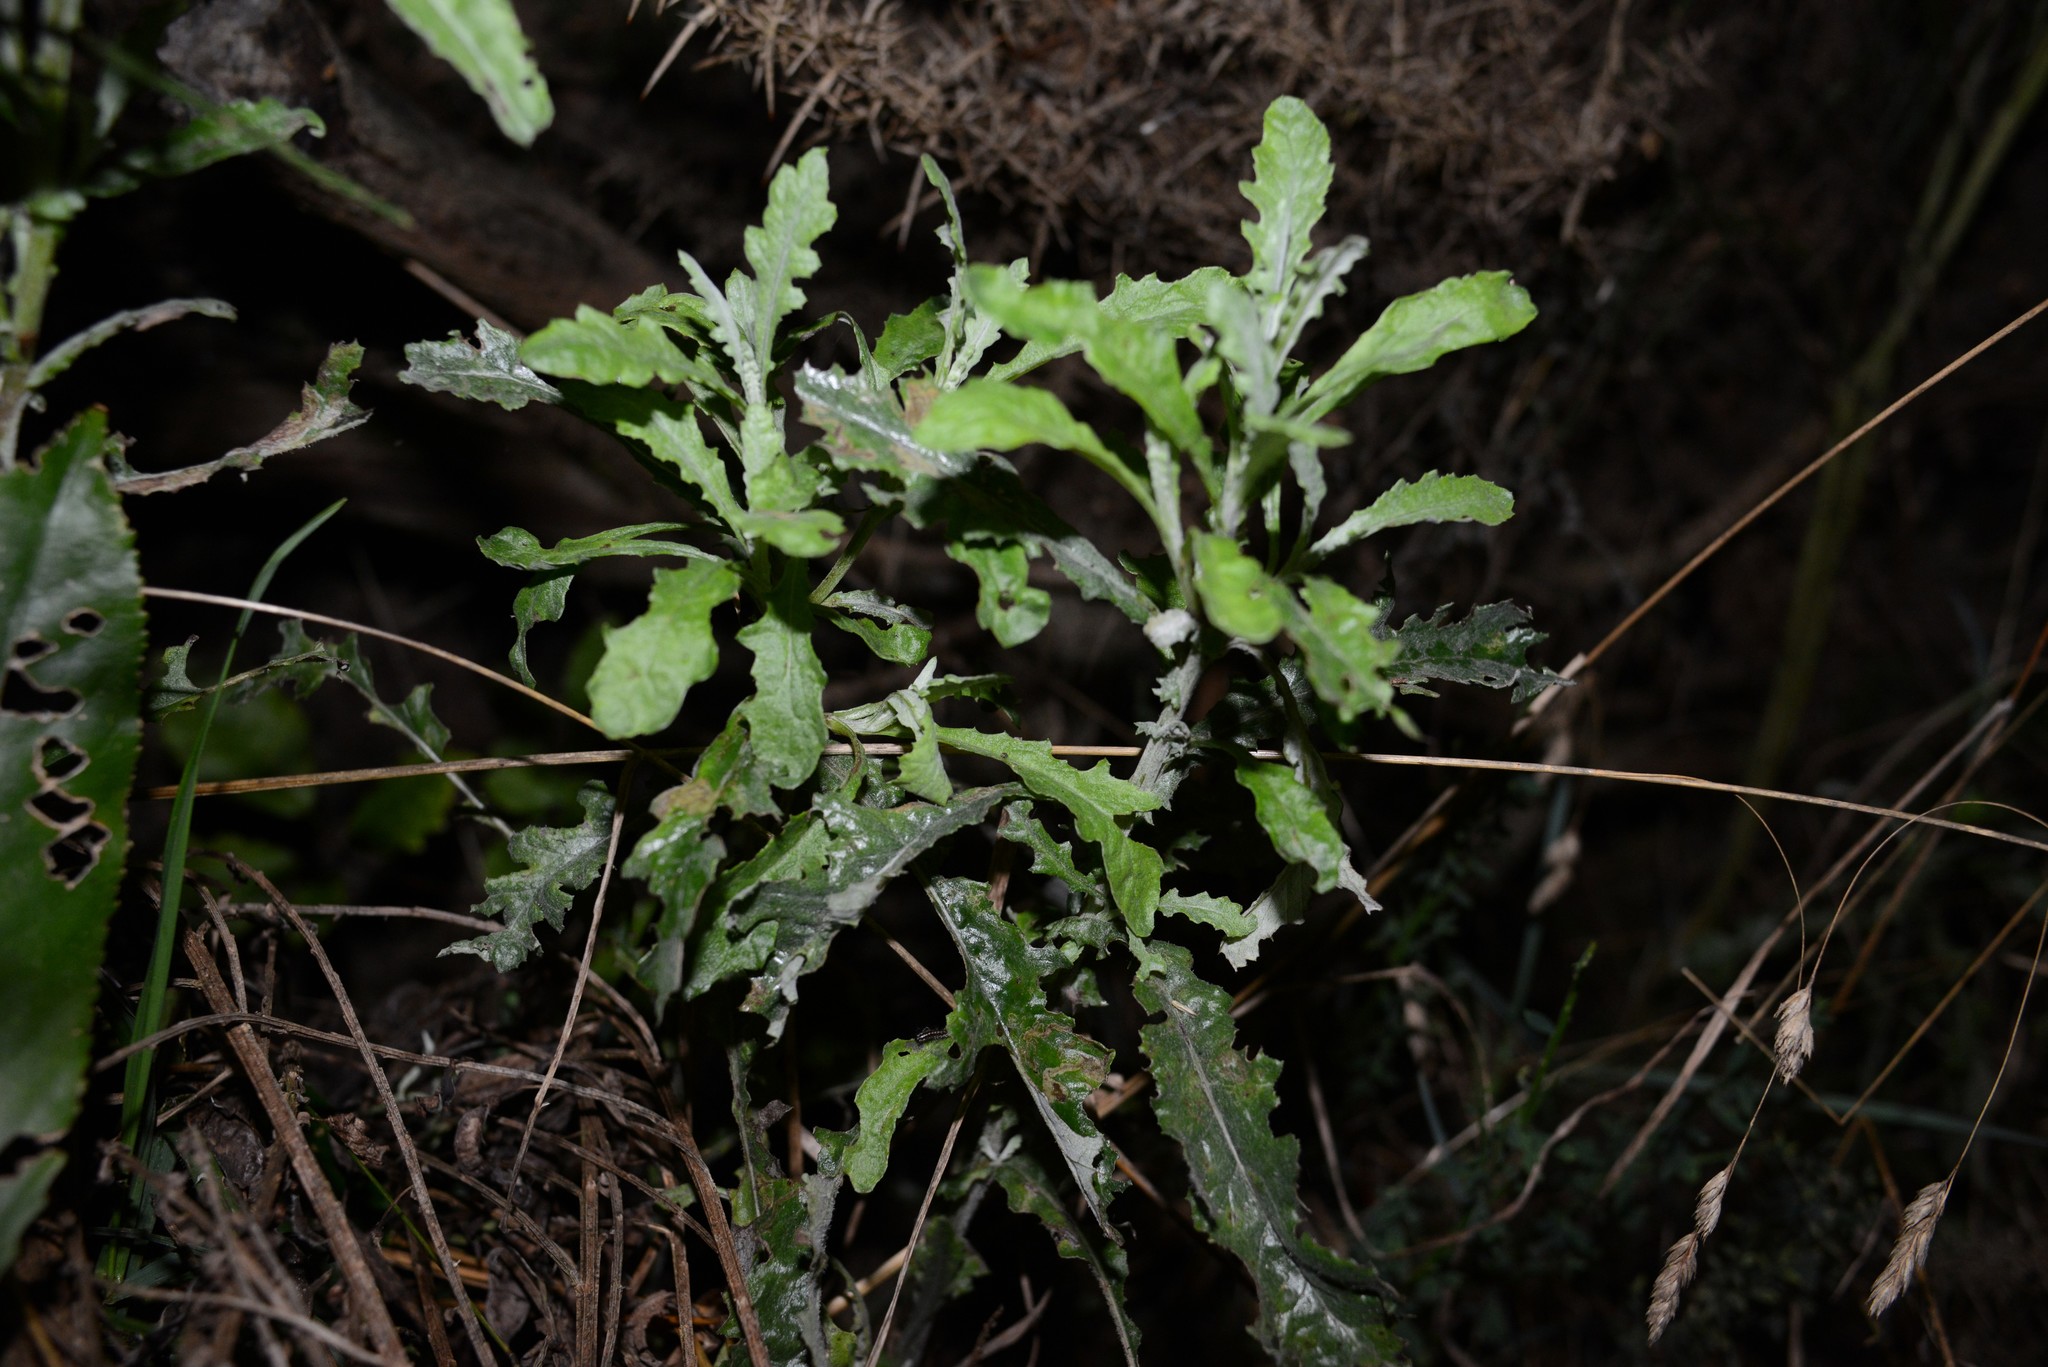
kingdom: Plantae
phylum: Tracheophyta
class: Magnoliopsida
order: Asterales
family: Asteraceae
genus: Senecio
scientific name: Senecio glomeratus
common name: Cutleaf burnweed
